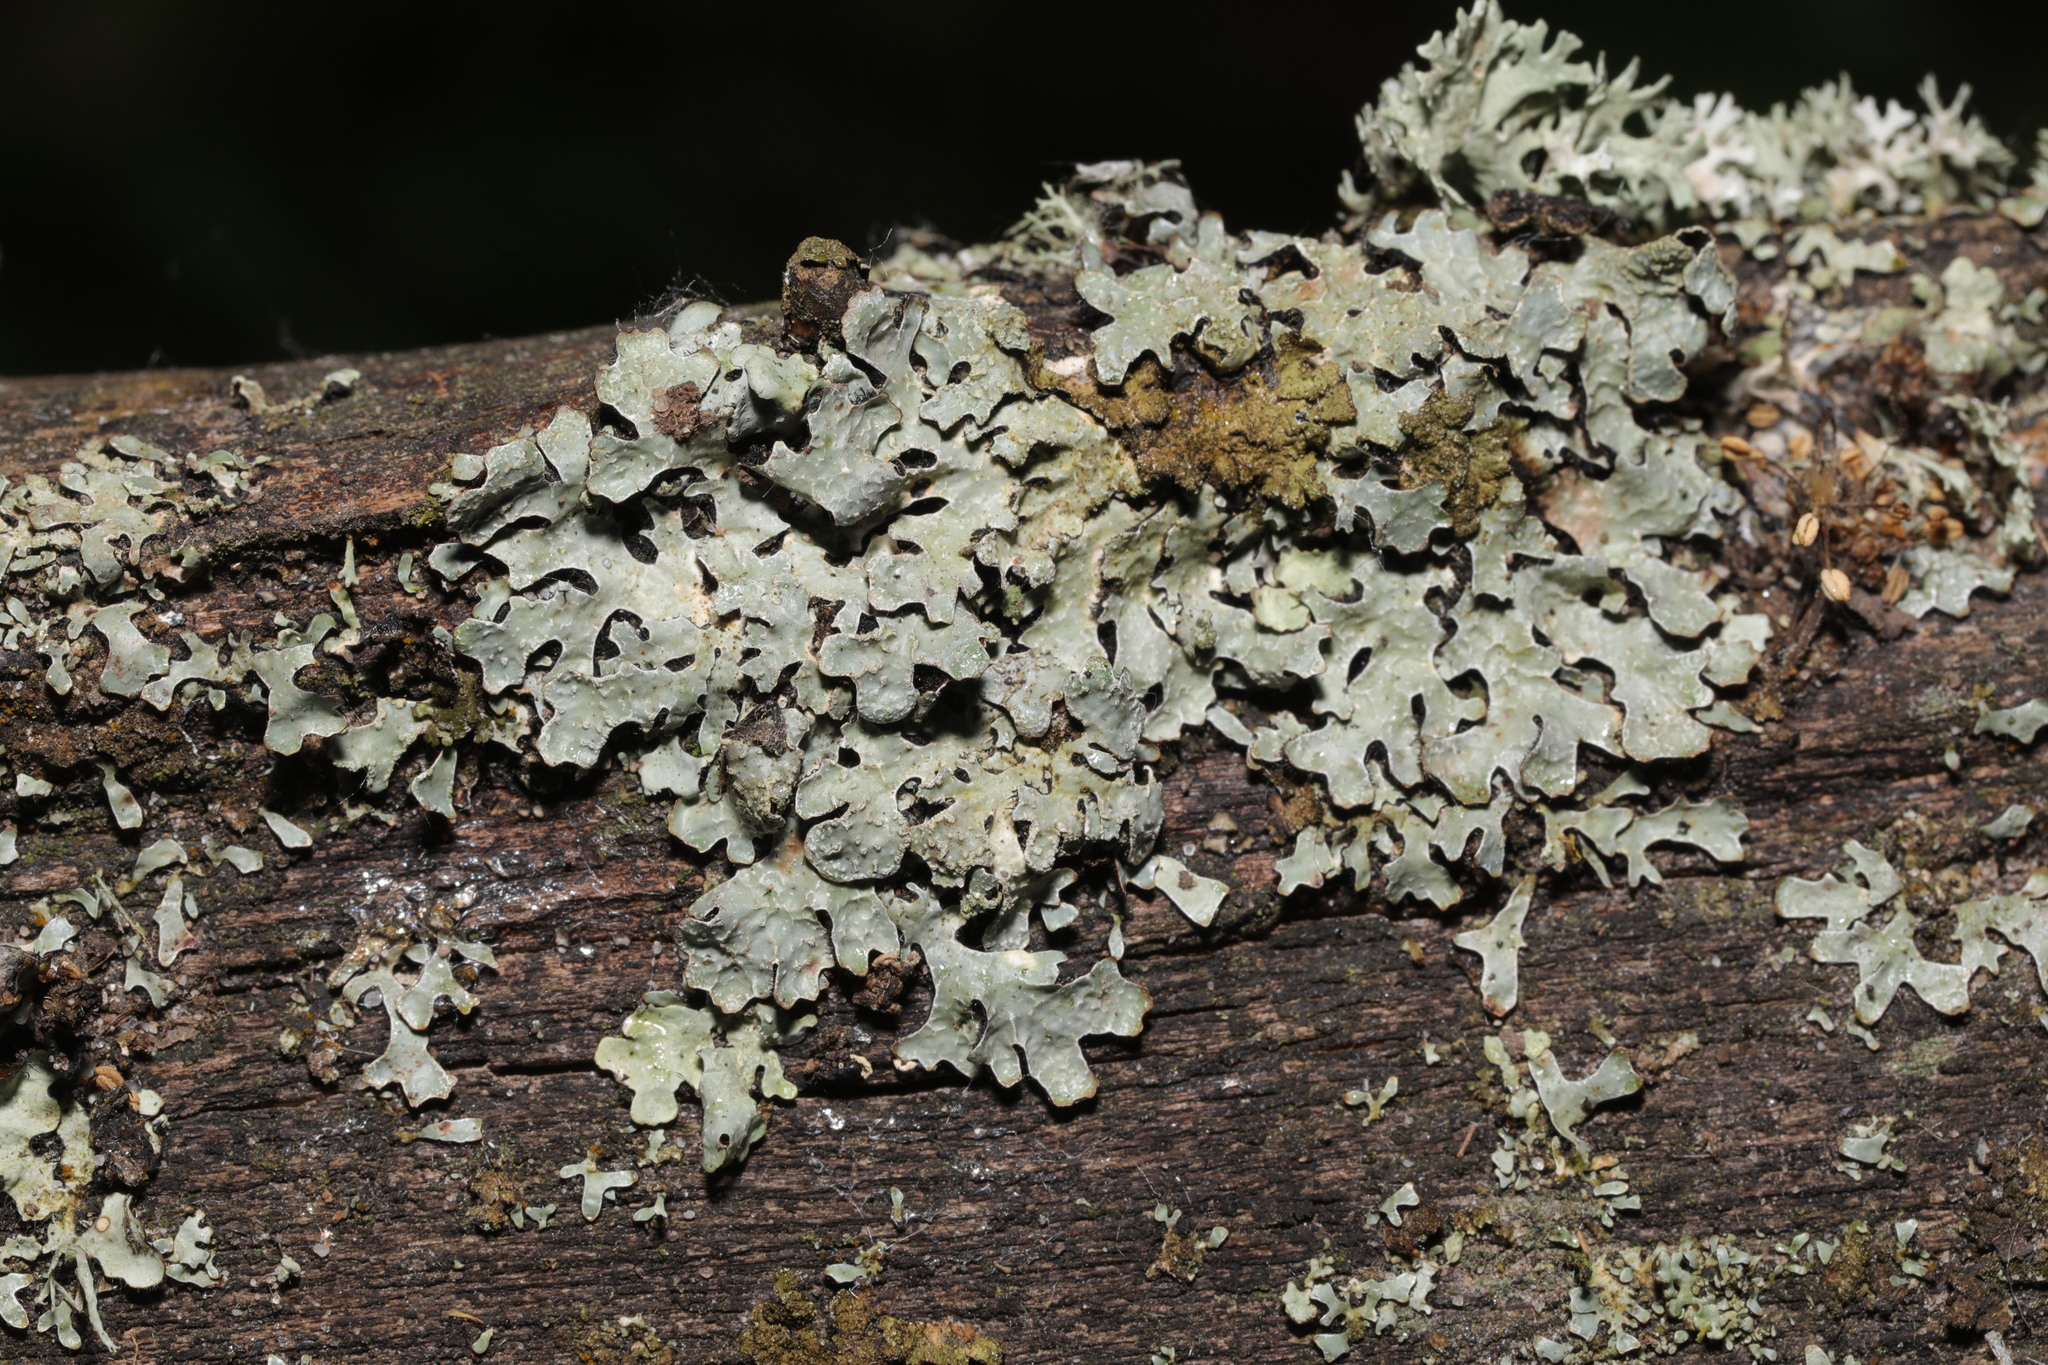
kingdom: Fungi
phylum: Ascomycota
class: Lecanoromycetes
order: Lecanorales
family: Parmeliaceae
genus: Parmelia
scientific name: Parmelia sulcata
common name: Netted shield lichen
